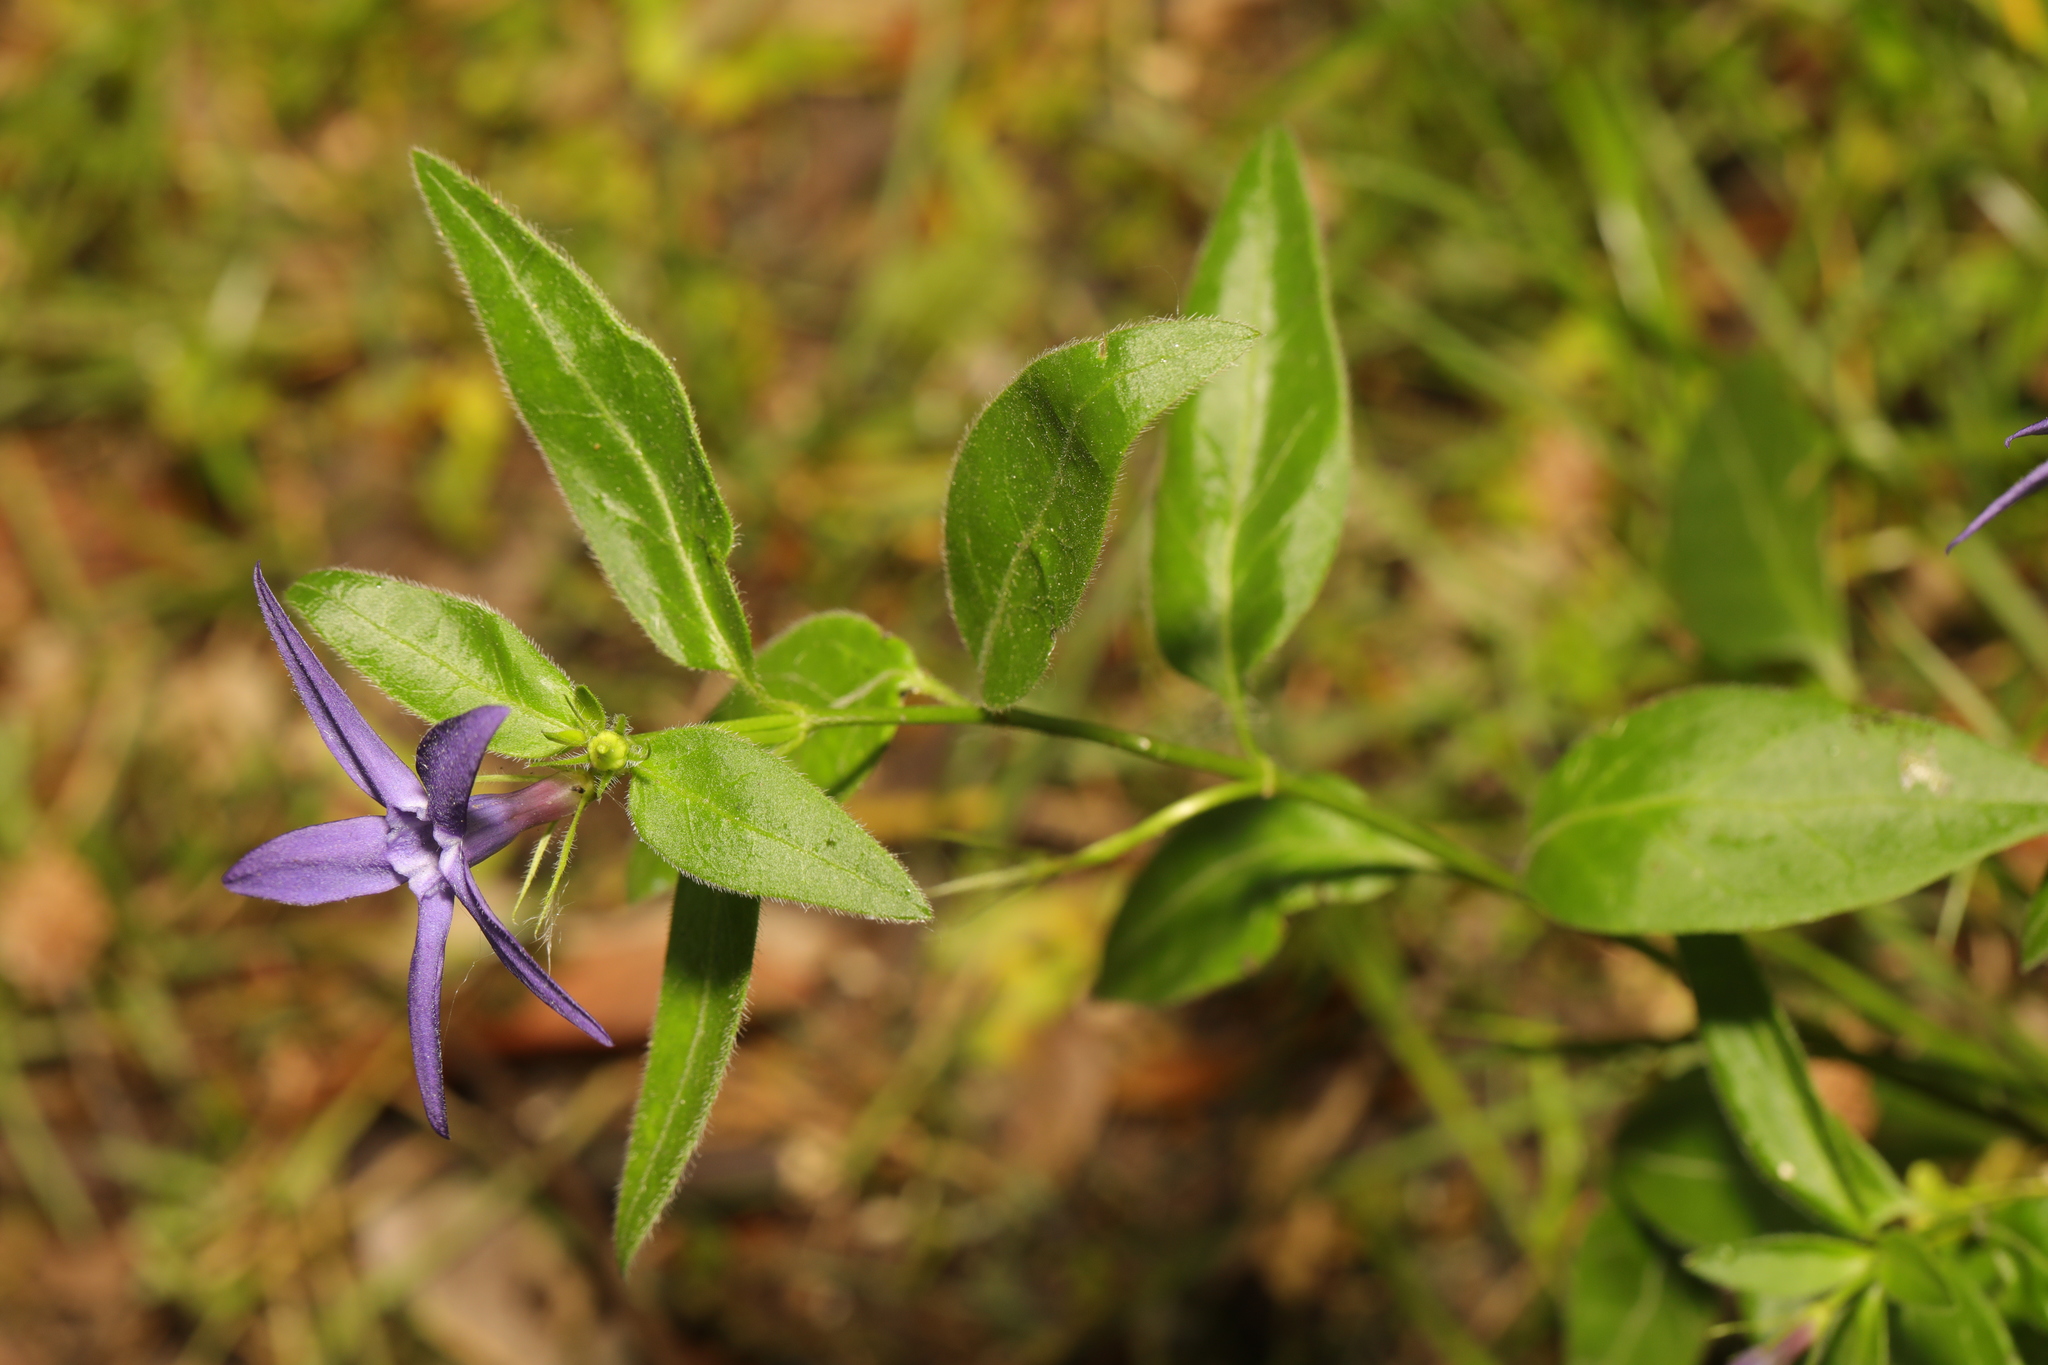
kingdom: Plantae
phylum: Tracheophyta
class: Magnoliopsida
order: Gentianales
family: Apocynaceae
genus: Vinca
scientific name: Vinca major
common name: Greater periwinkle
